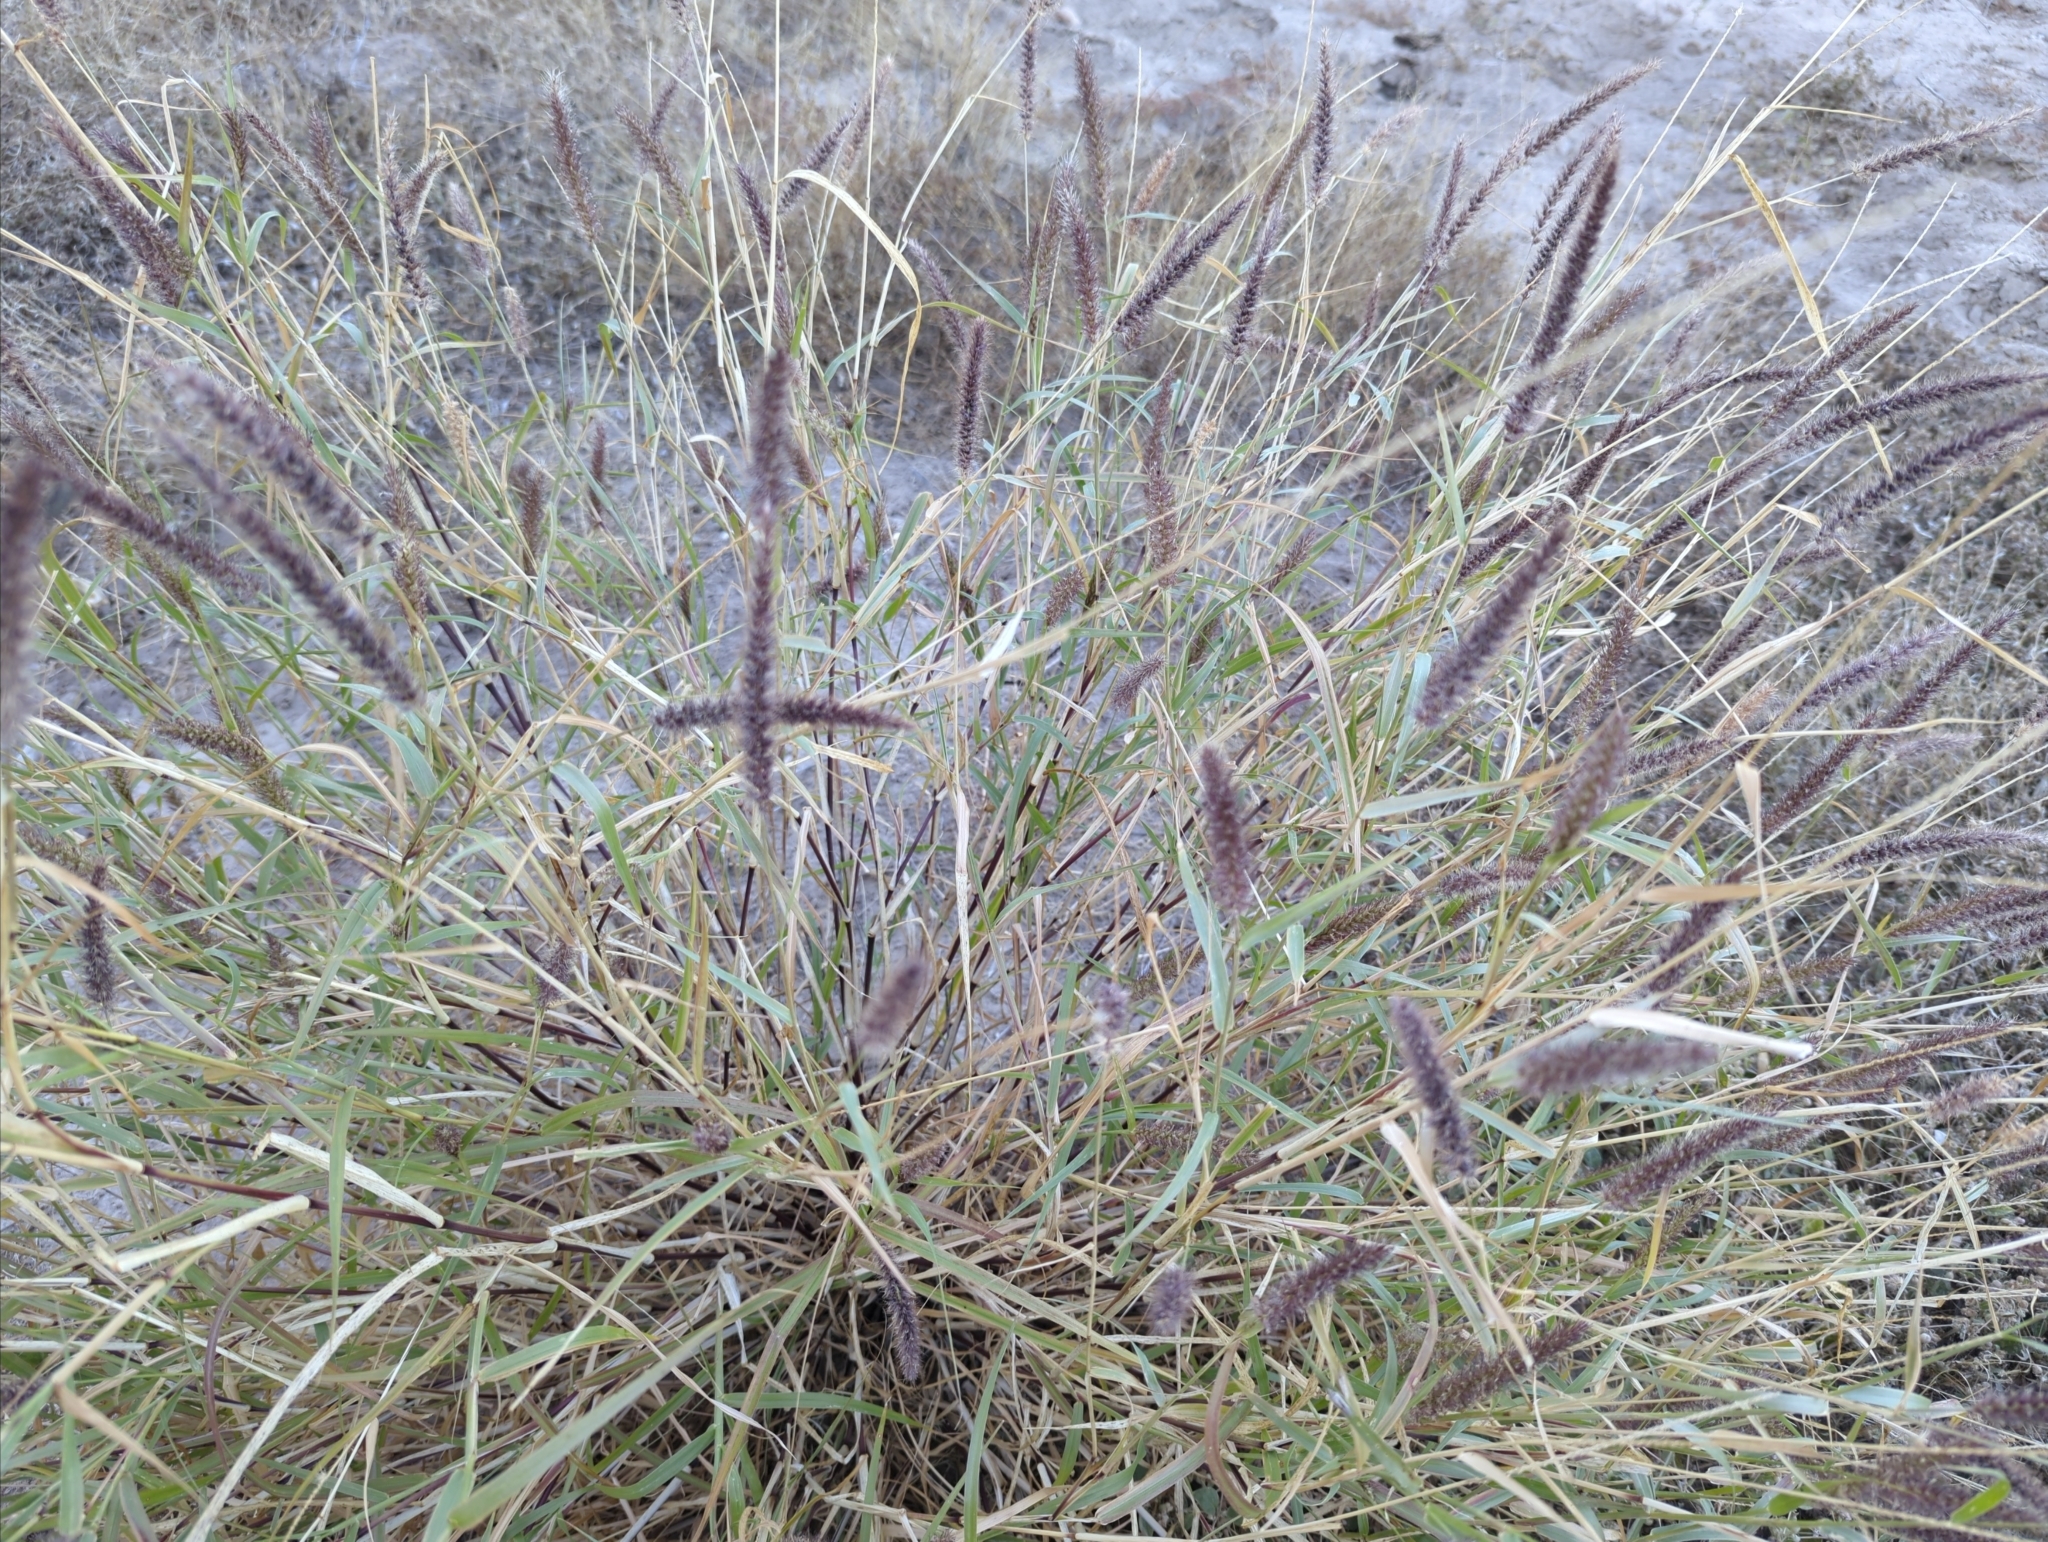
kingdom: Plantae
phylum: Tracheophyta
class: Liliopsida
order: Poales
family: Poaceae
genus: Cenchrus
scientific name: Cenchrus ciliaris
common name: Buffelgrass
